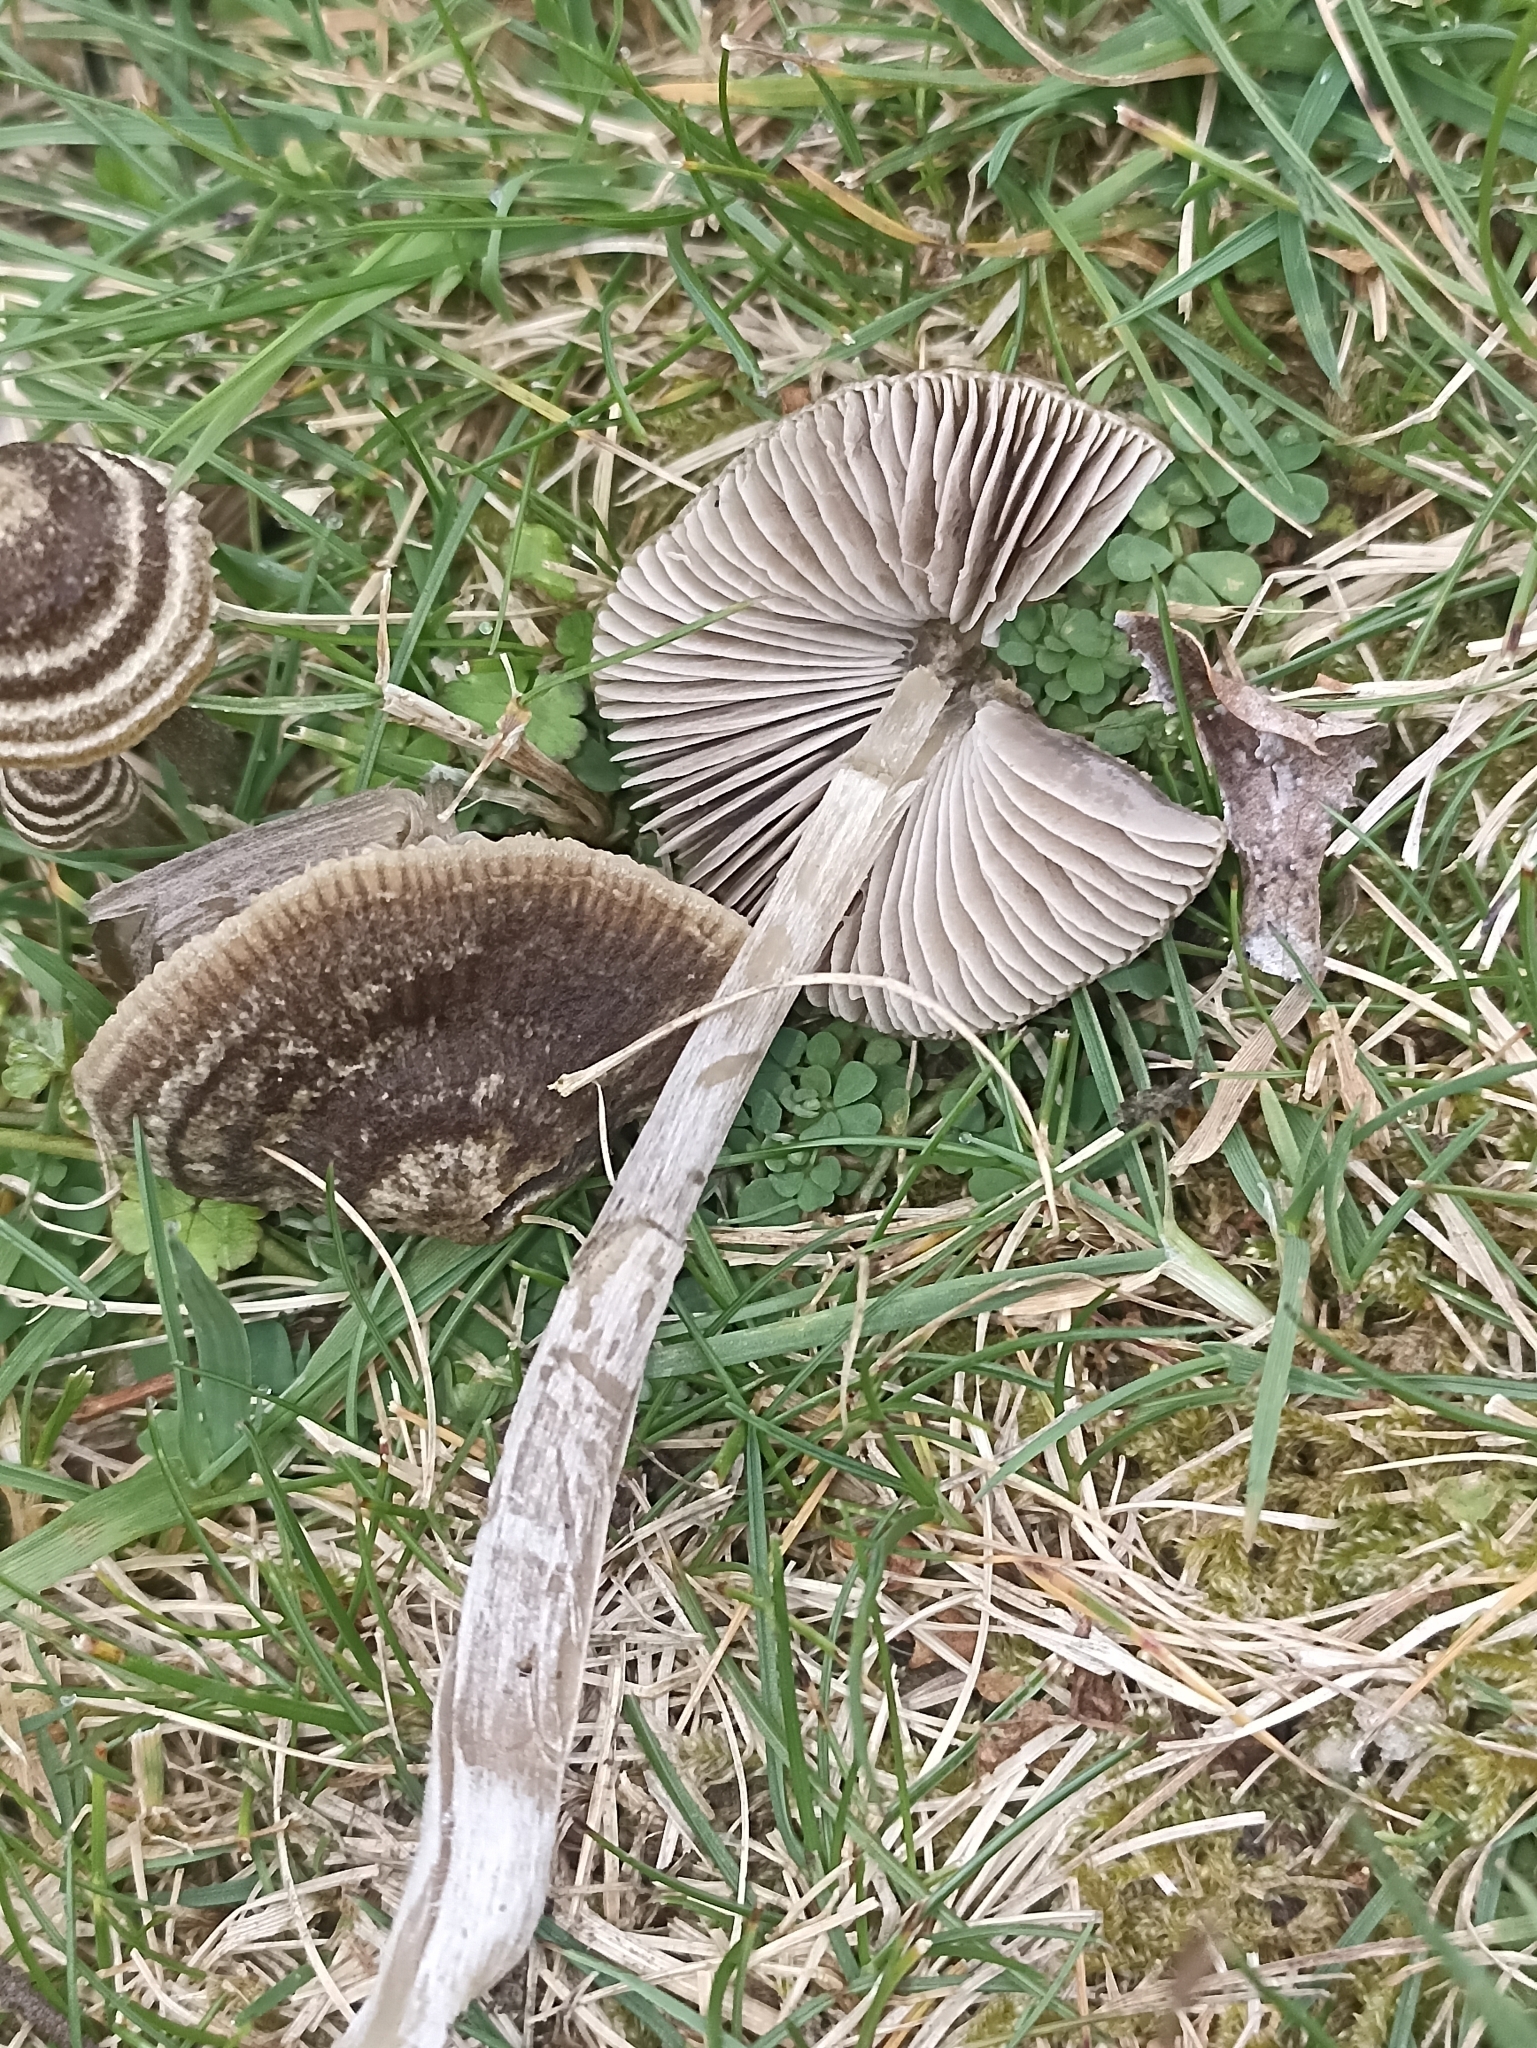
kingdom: Fungi
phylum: Basidiomycota
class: Agaricomycetes
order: Agaricales
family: Entolomataceae
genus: Entoloma
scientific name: Entoloma perzonatum
